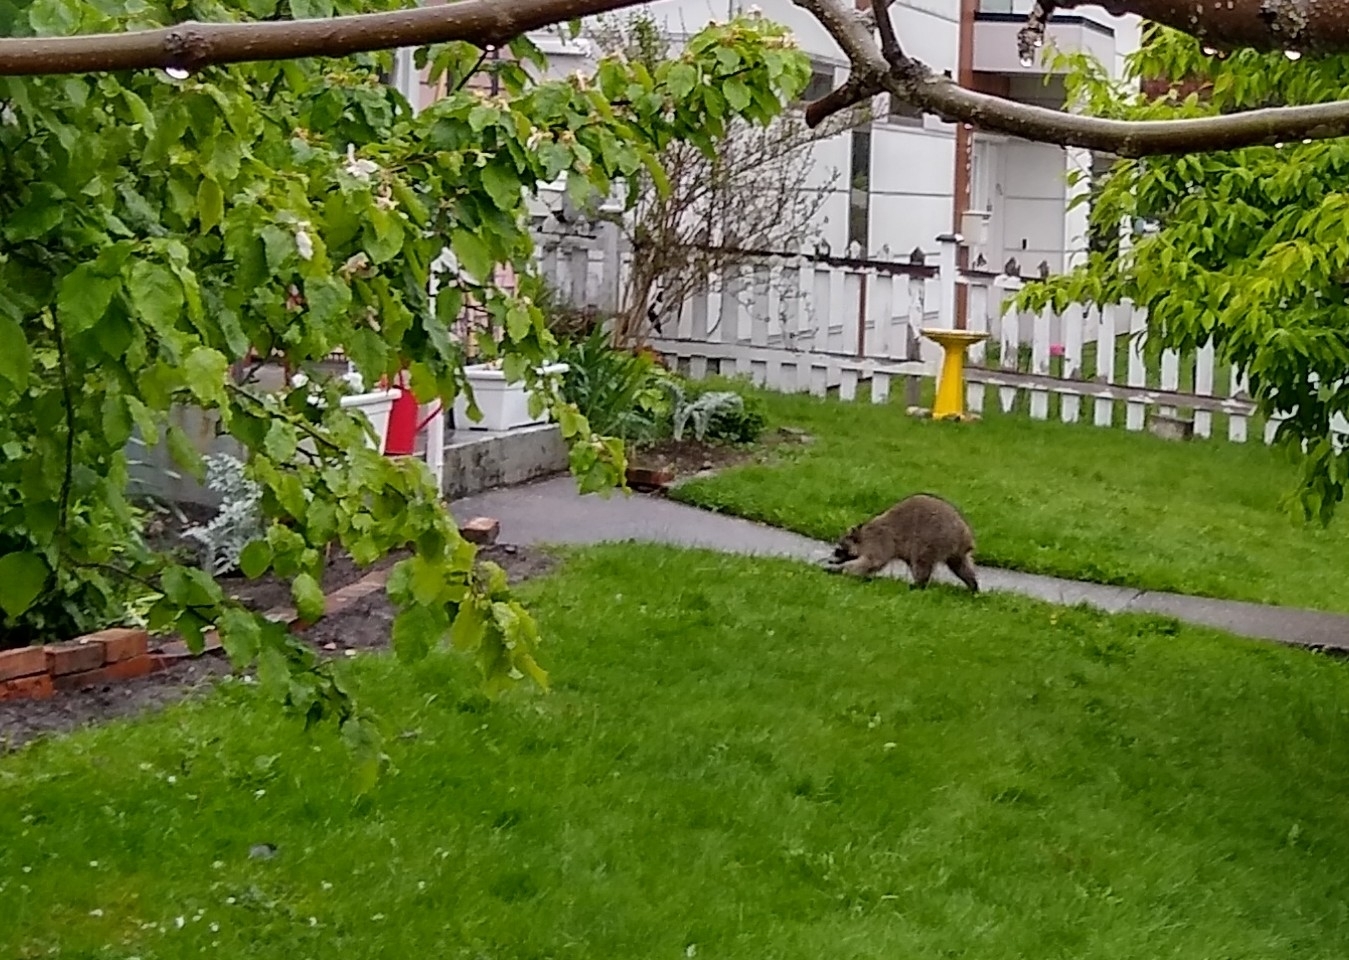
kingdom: Animalia
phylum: Chordata
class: Mammalia
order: Carnivora
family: Procyonidae
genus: Procyon
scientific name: Procyon lotor
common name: Raccoon
